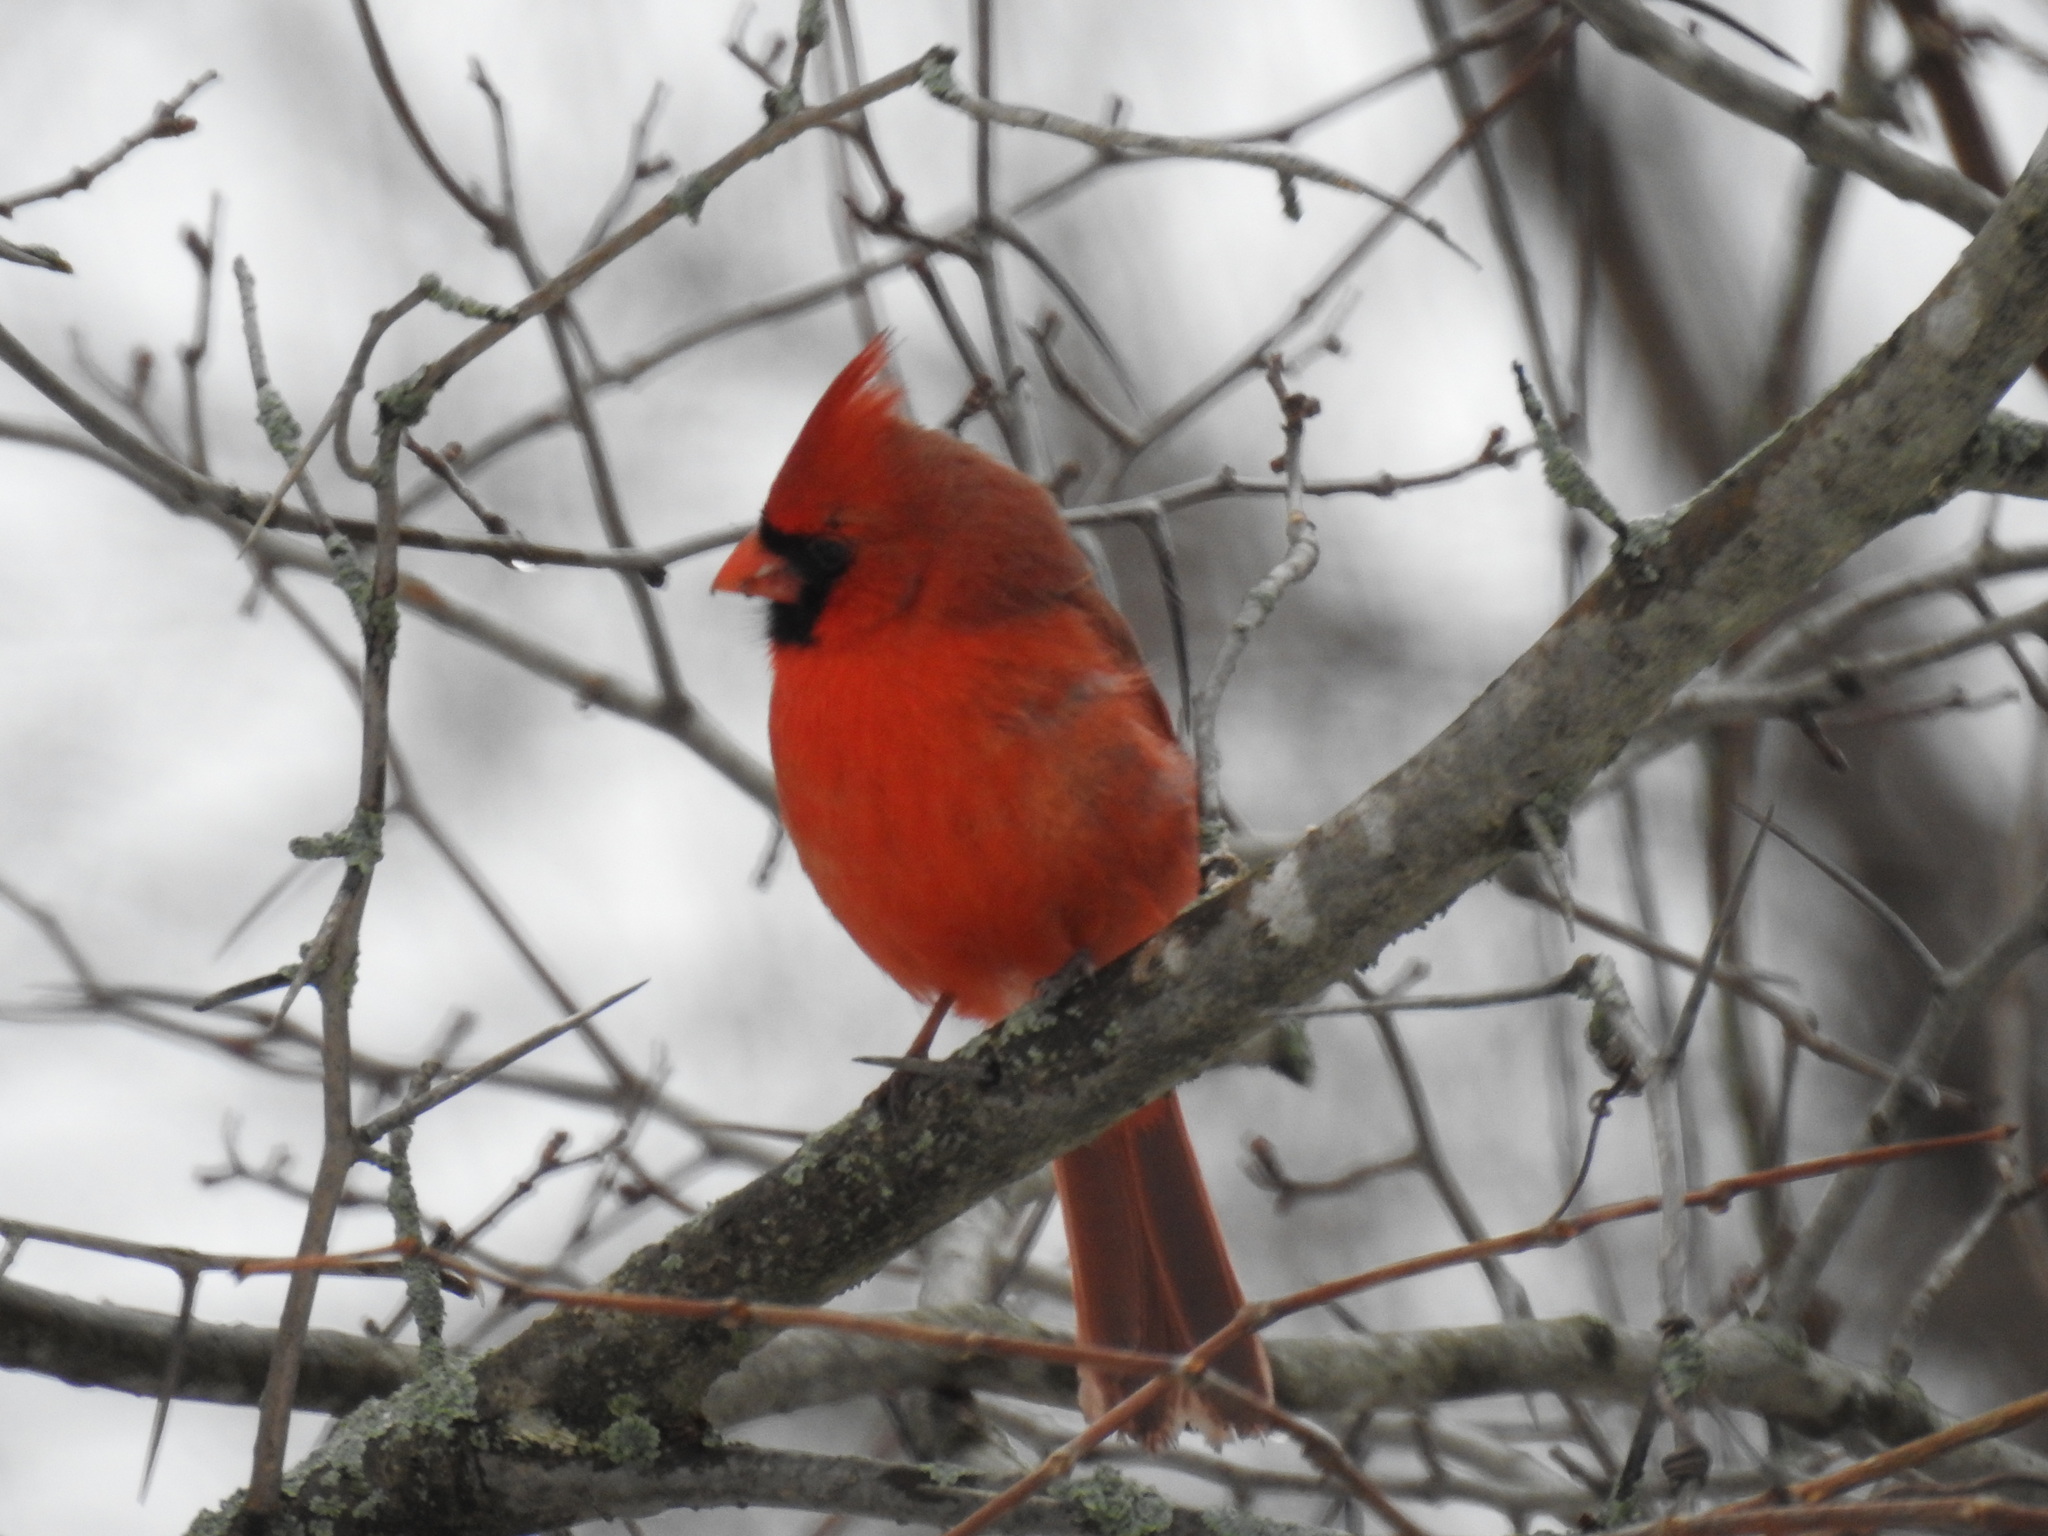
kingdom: Animalia
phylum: Chordata
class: Aves
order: Passeriformes
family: Cardinalidae
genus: Cardinalis
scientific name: Cardinalis cardinalis
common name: Northern cardinal
